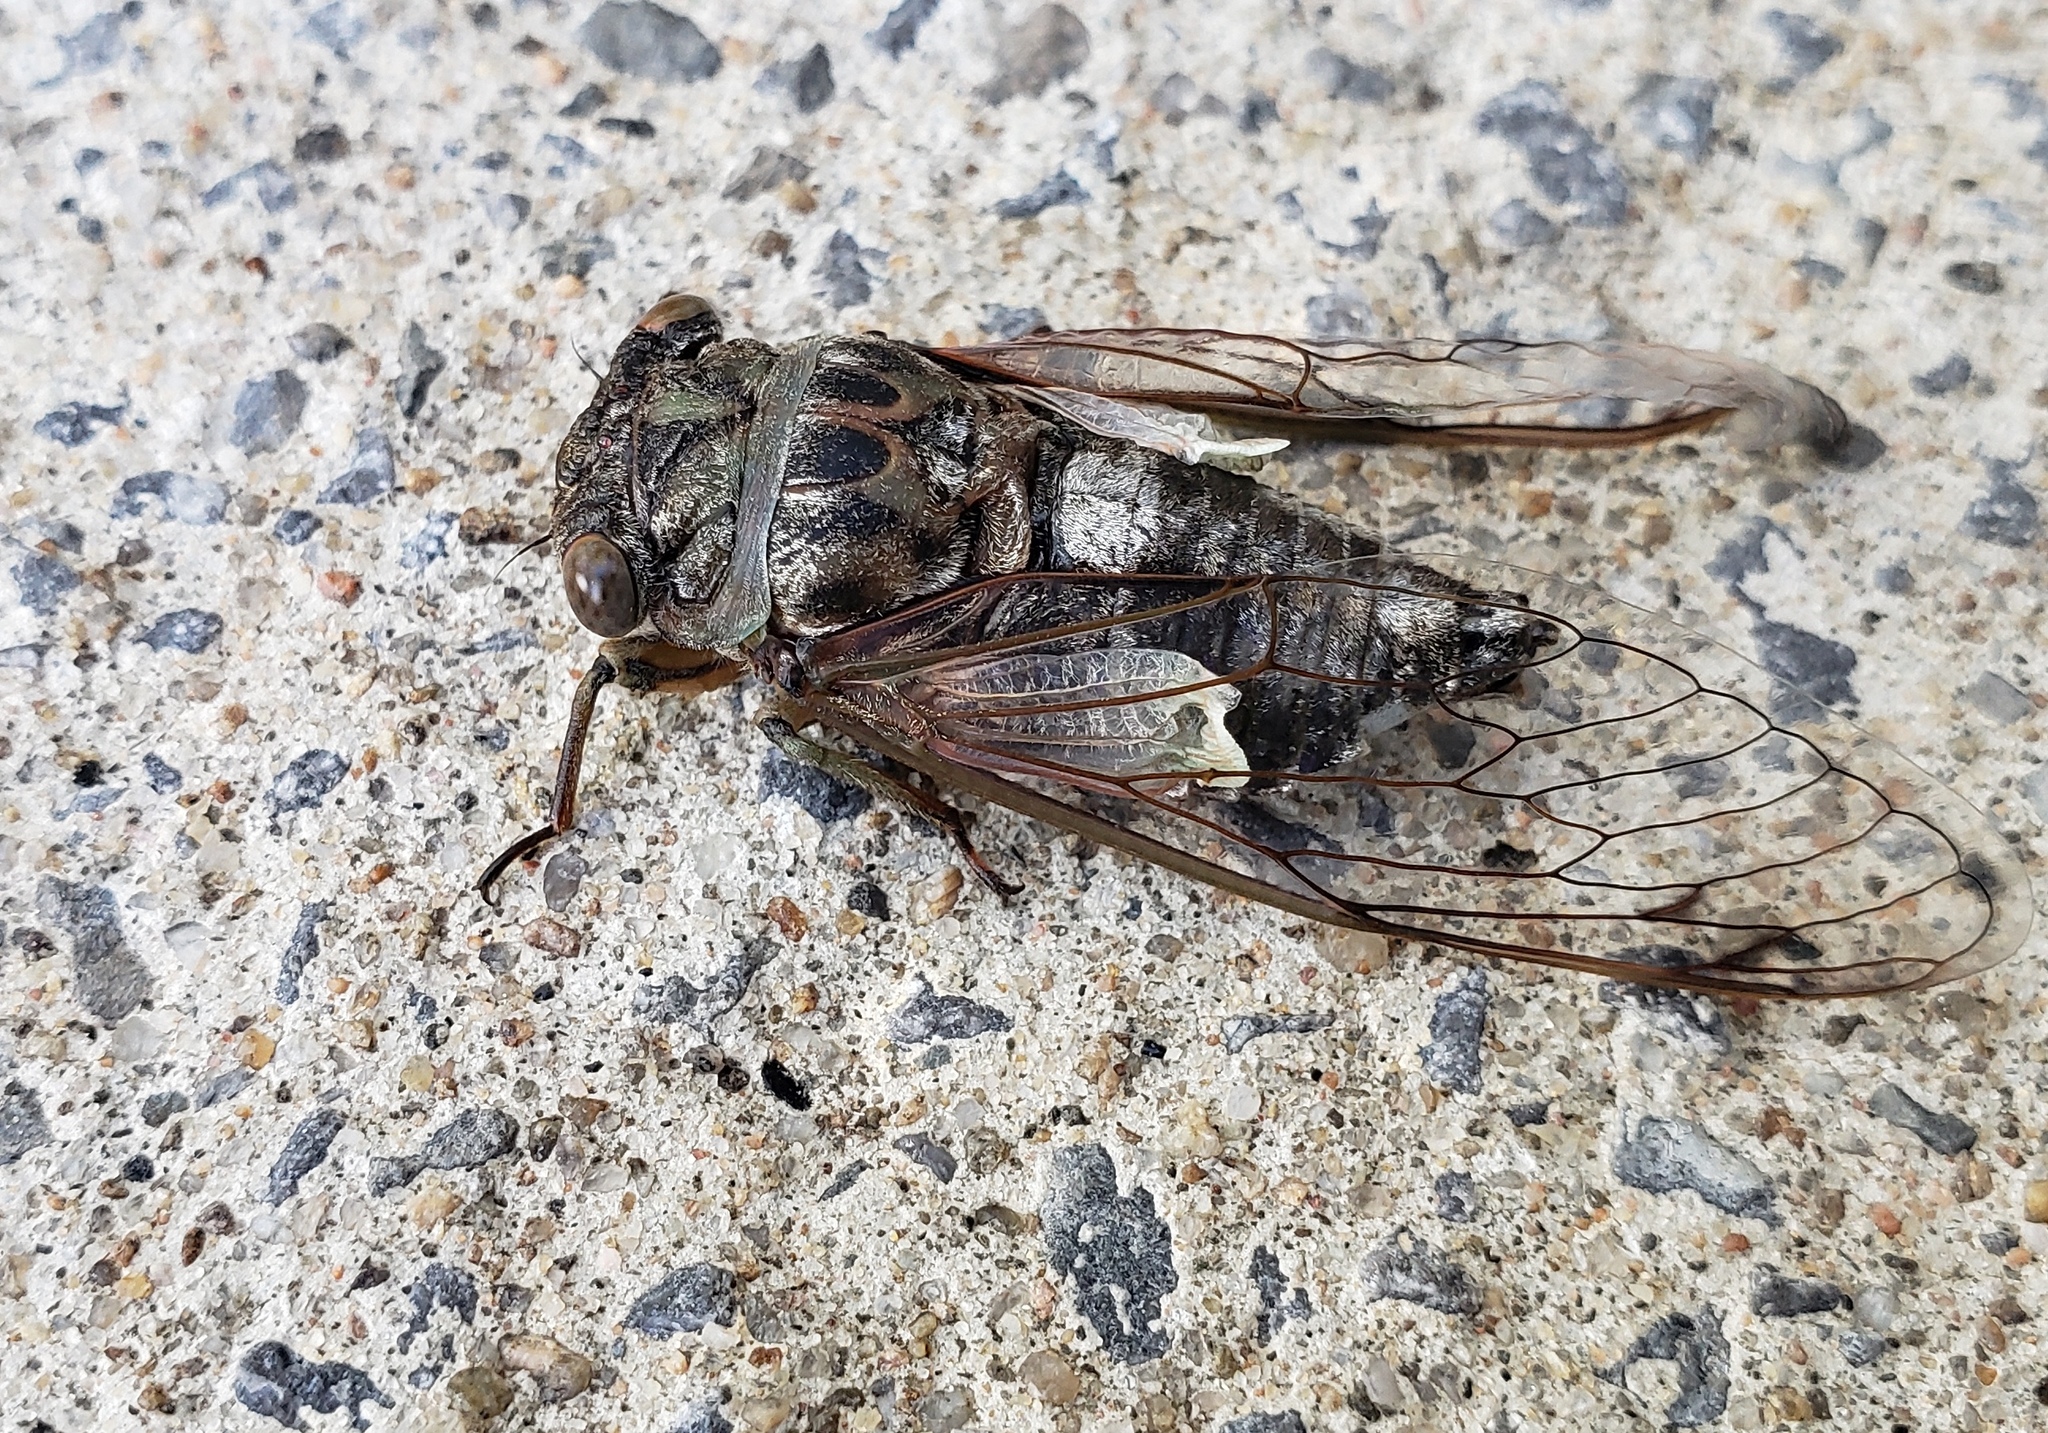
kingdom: Animalia
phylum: Arthropoda
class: Insecta
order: Hemiptera
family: Cicadidae
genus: Neotibicen
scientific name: Neotibicen canicularis
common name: God-day cicada
